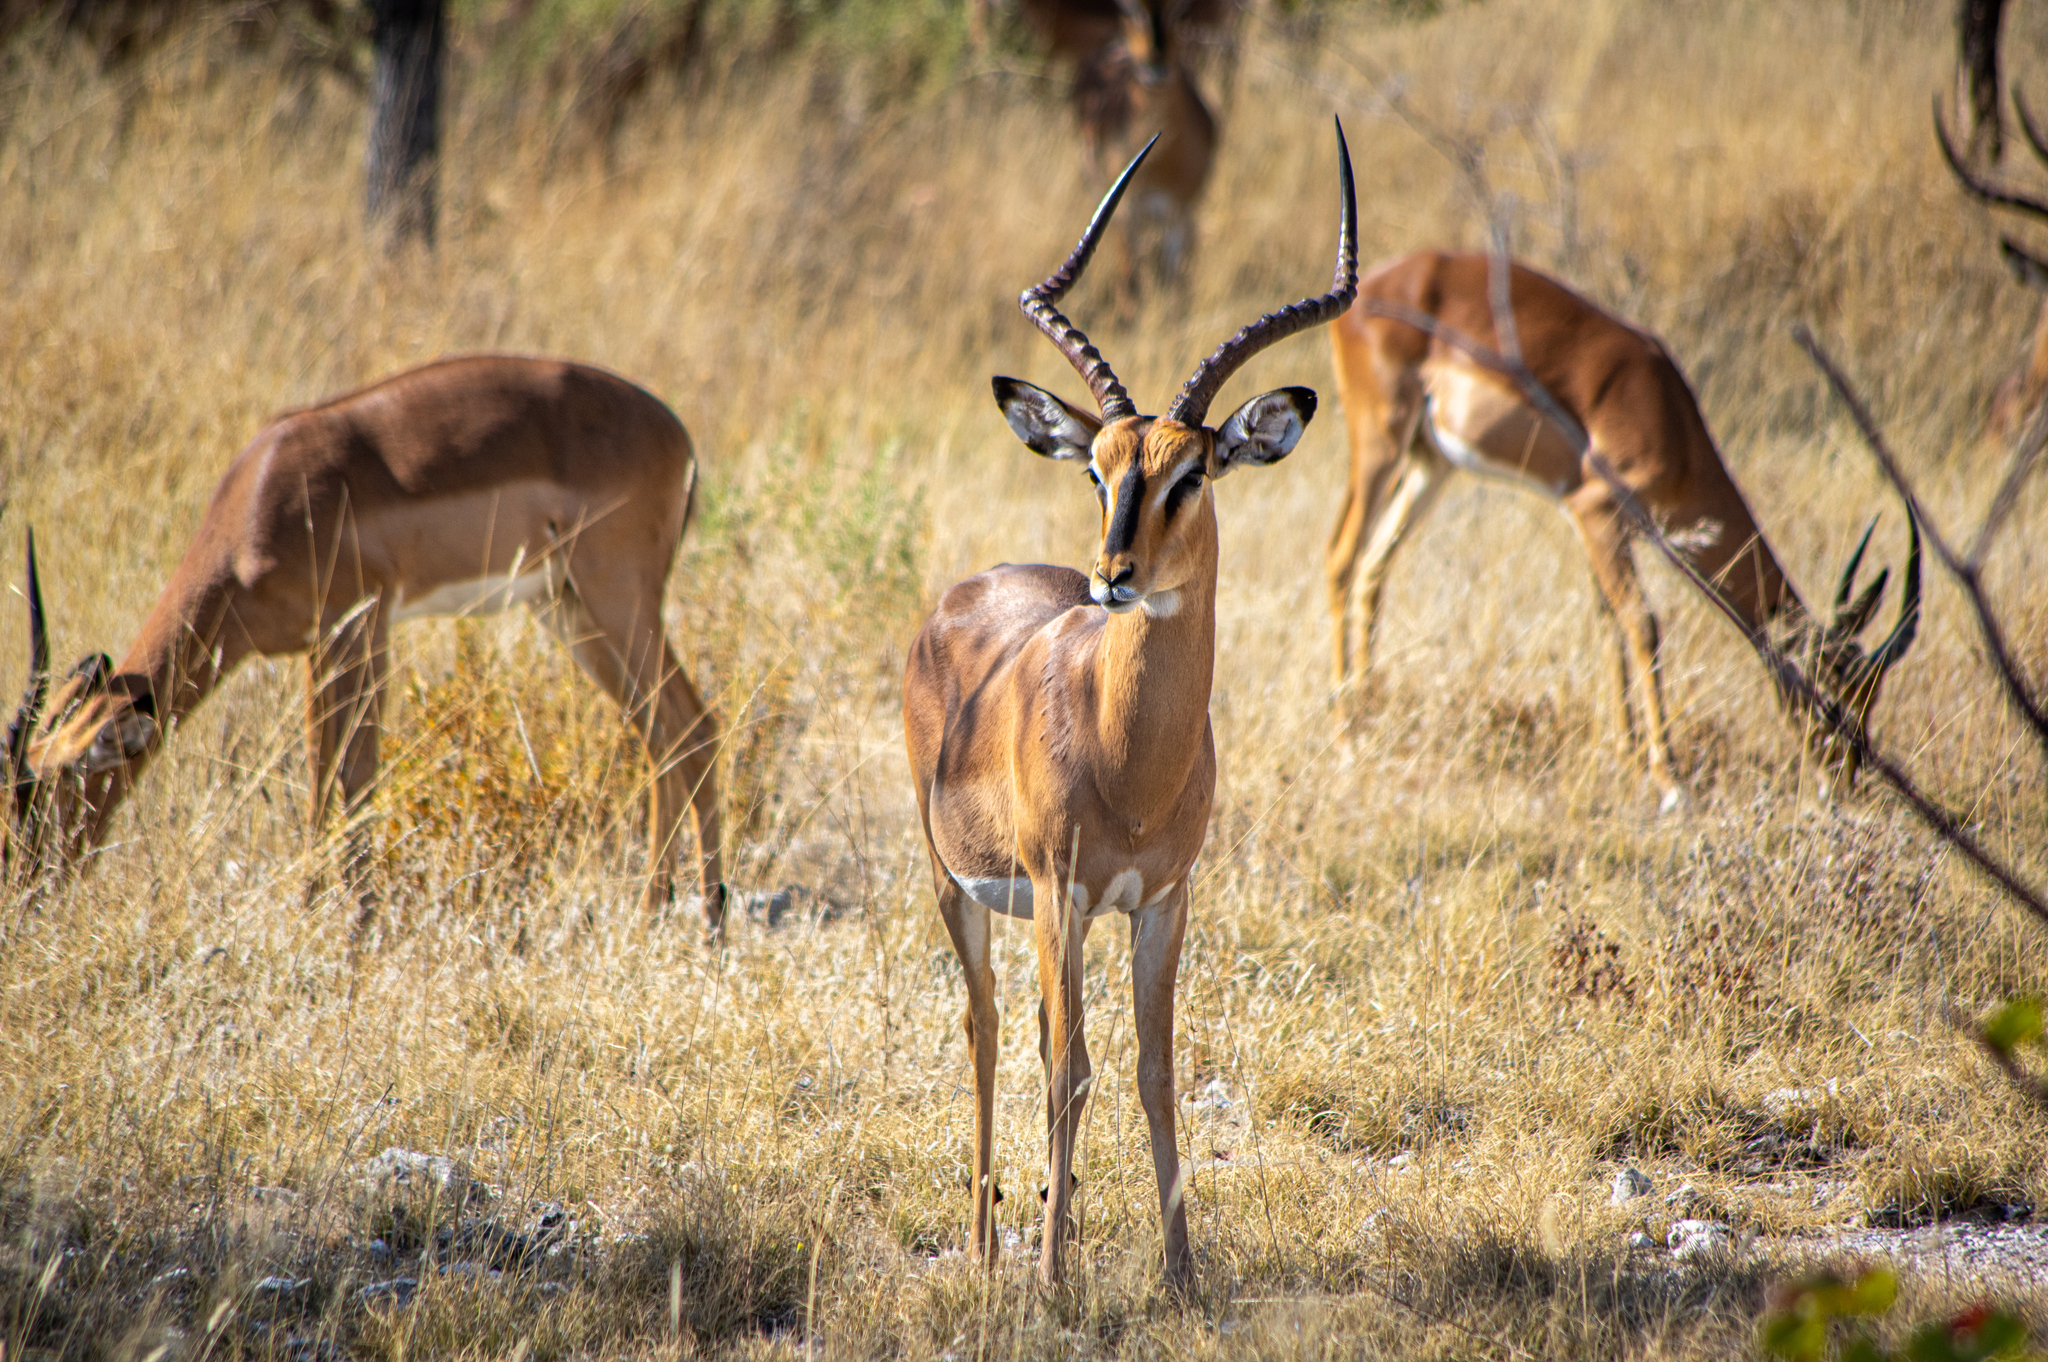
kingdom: Animalia
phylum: Chordata
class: Mammalia
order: Artiodactyla
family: Bovidae
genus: Aepyceros
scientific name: Aepyceros melampus
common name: Impala
